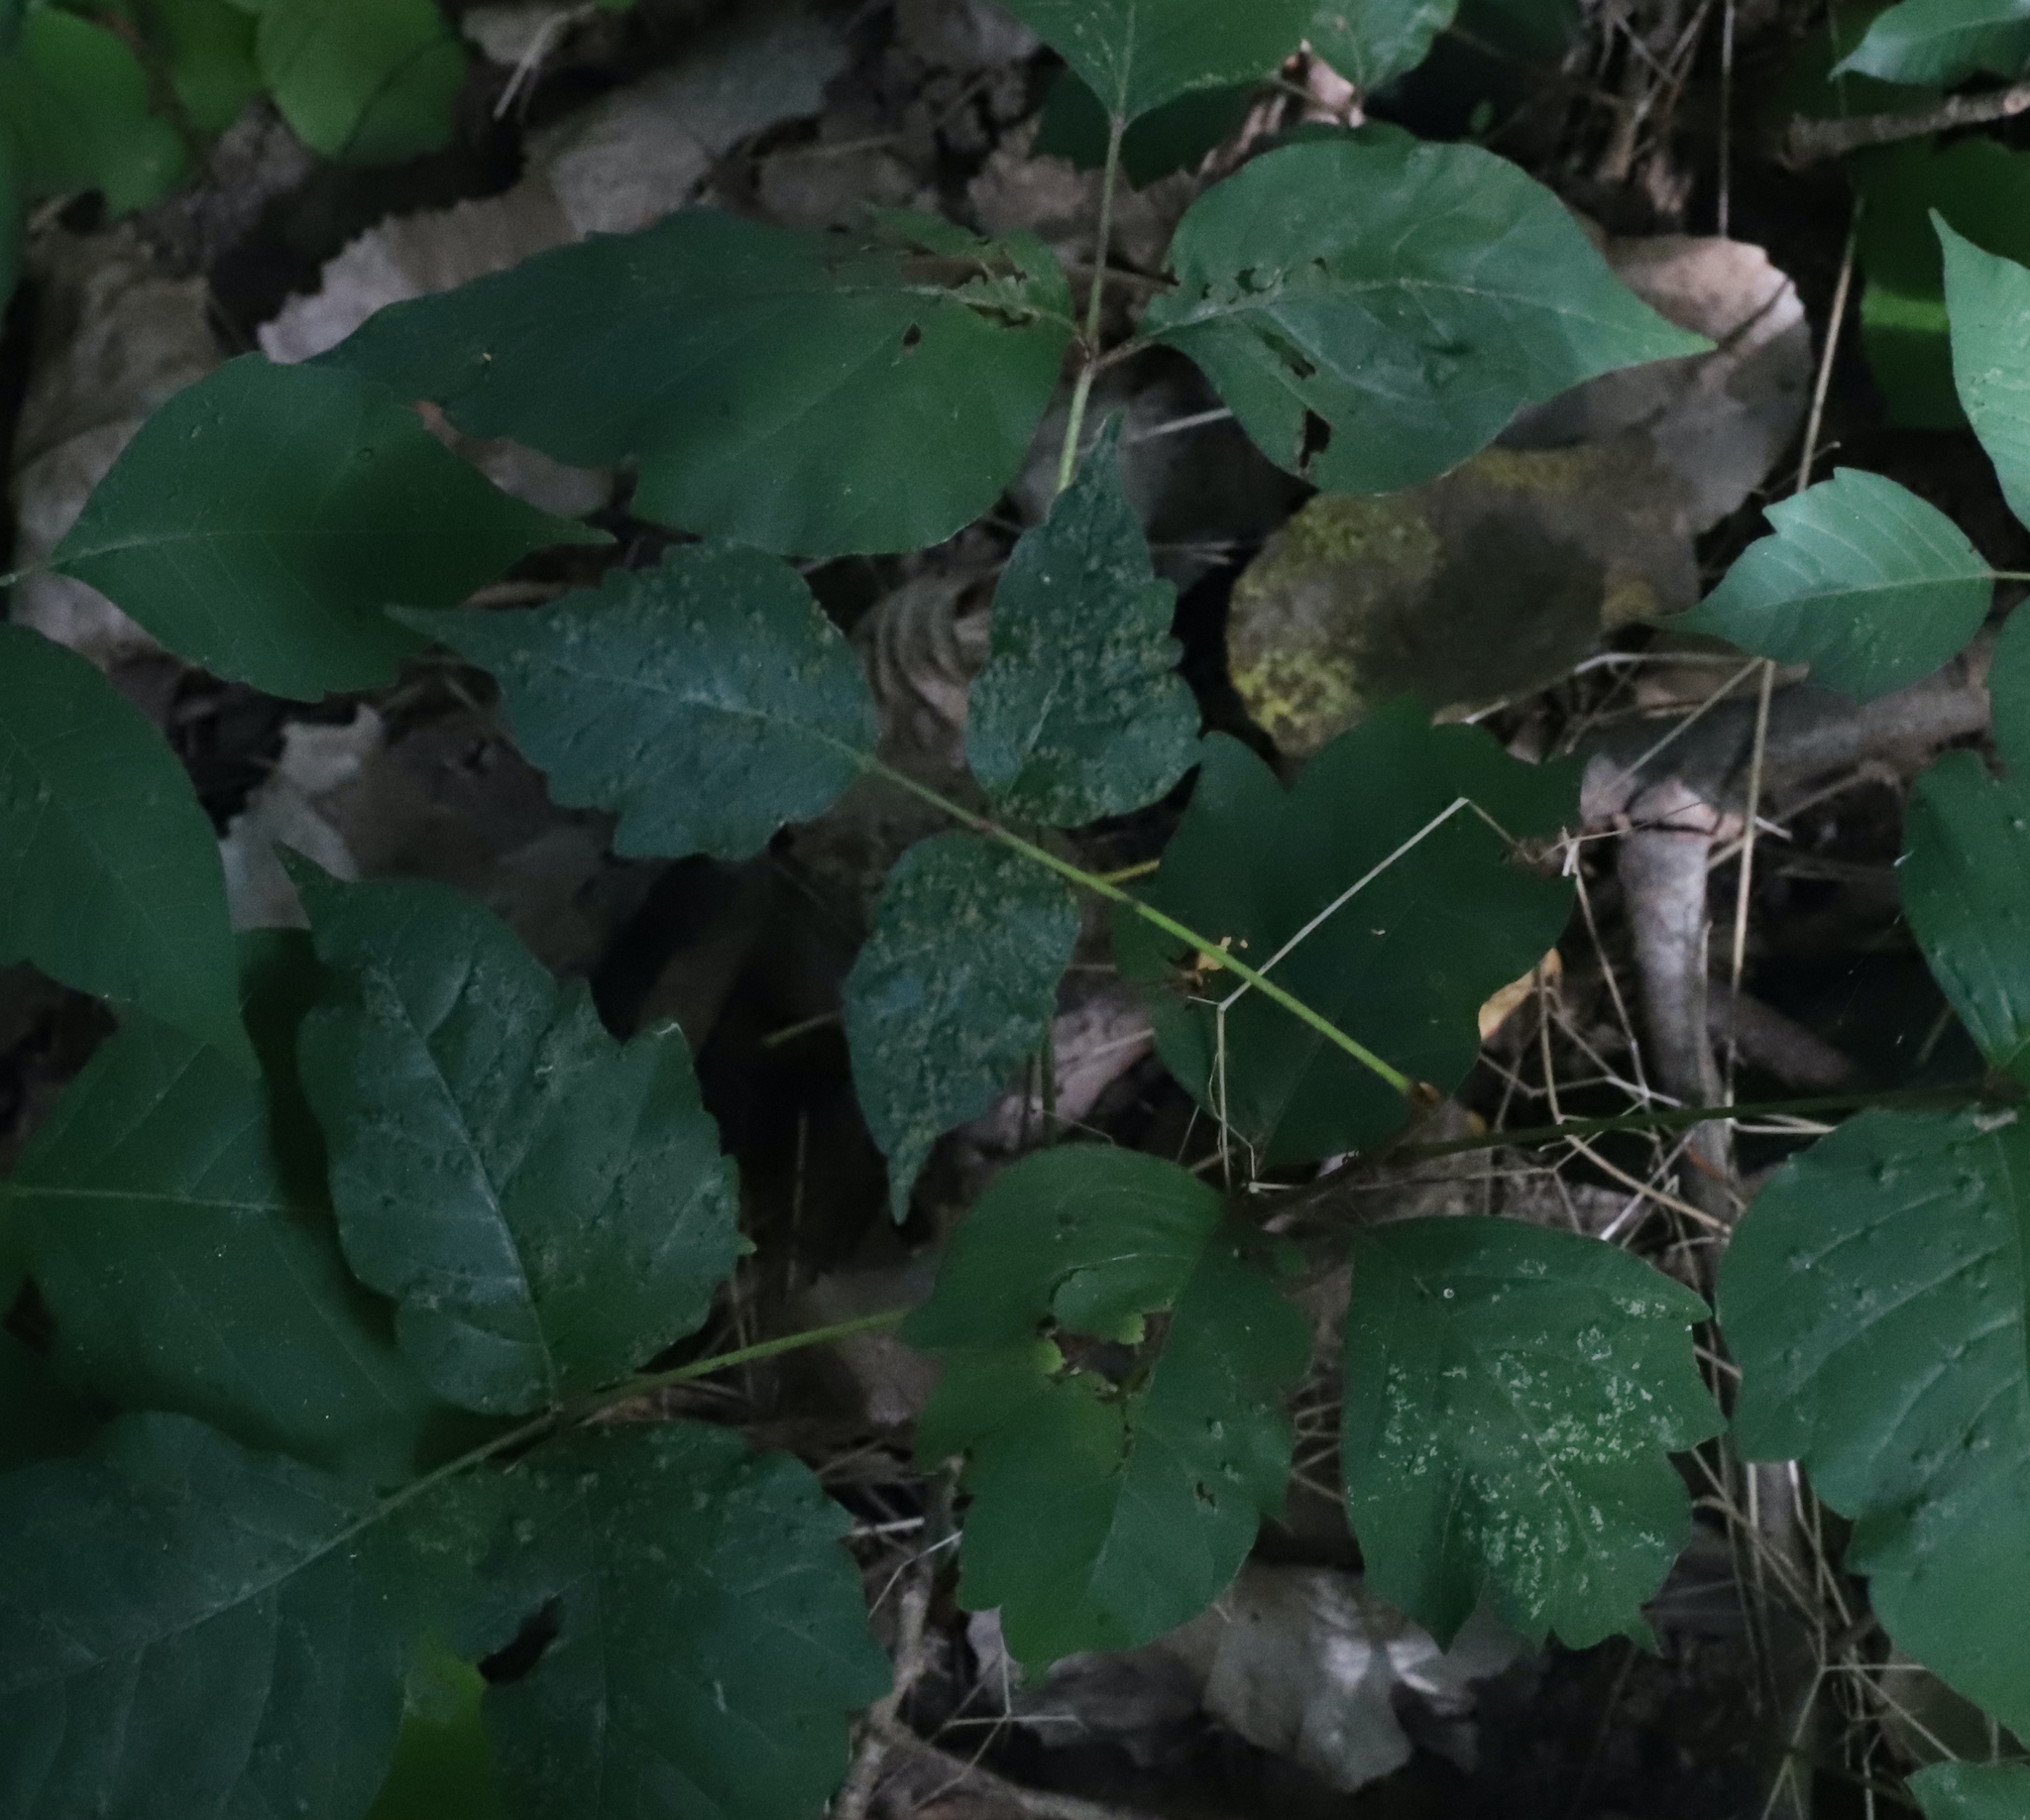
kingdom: Animalia
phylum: Arthropoda
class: Arachnida
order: Trombidiformes
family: Eriophyidae
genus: Aculops
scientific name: Aculops
